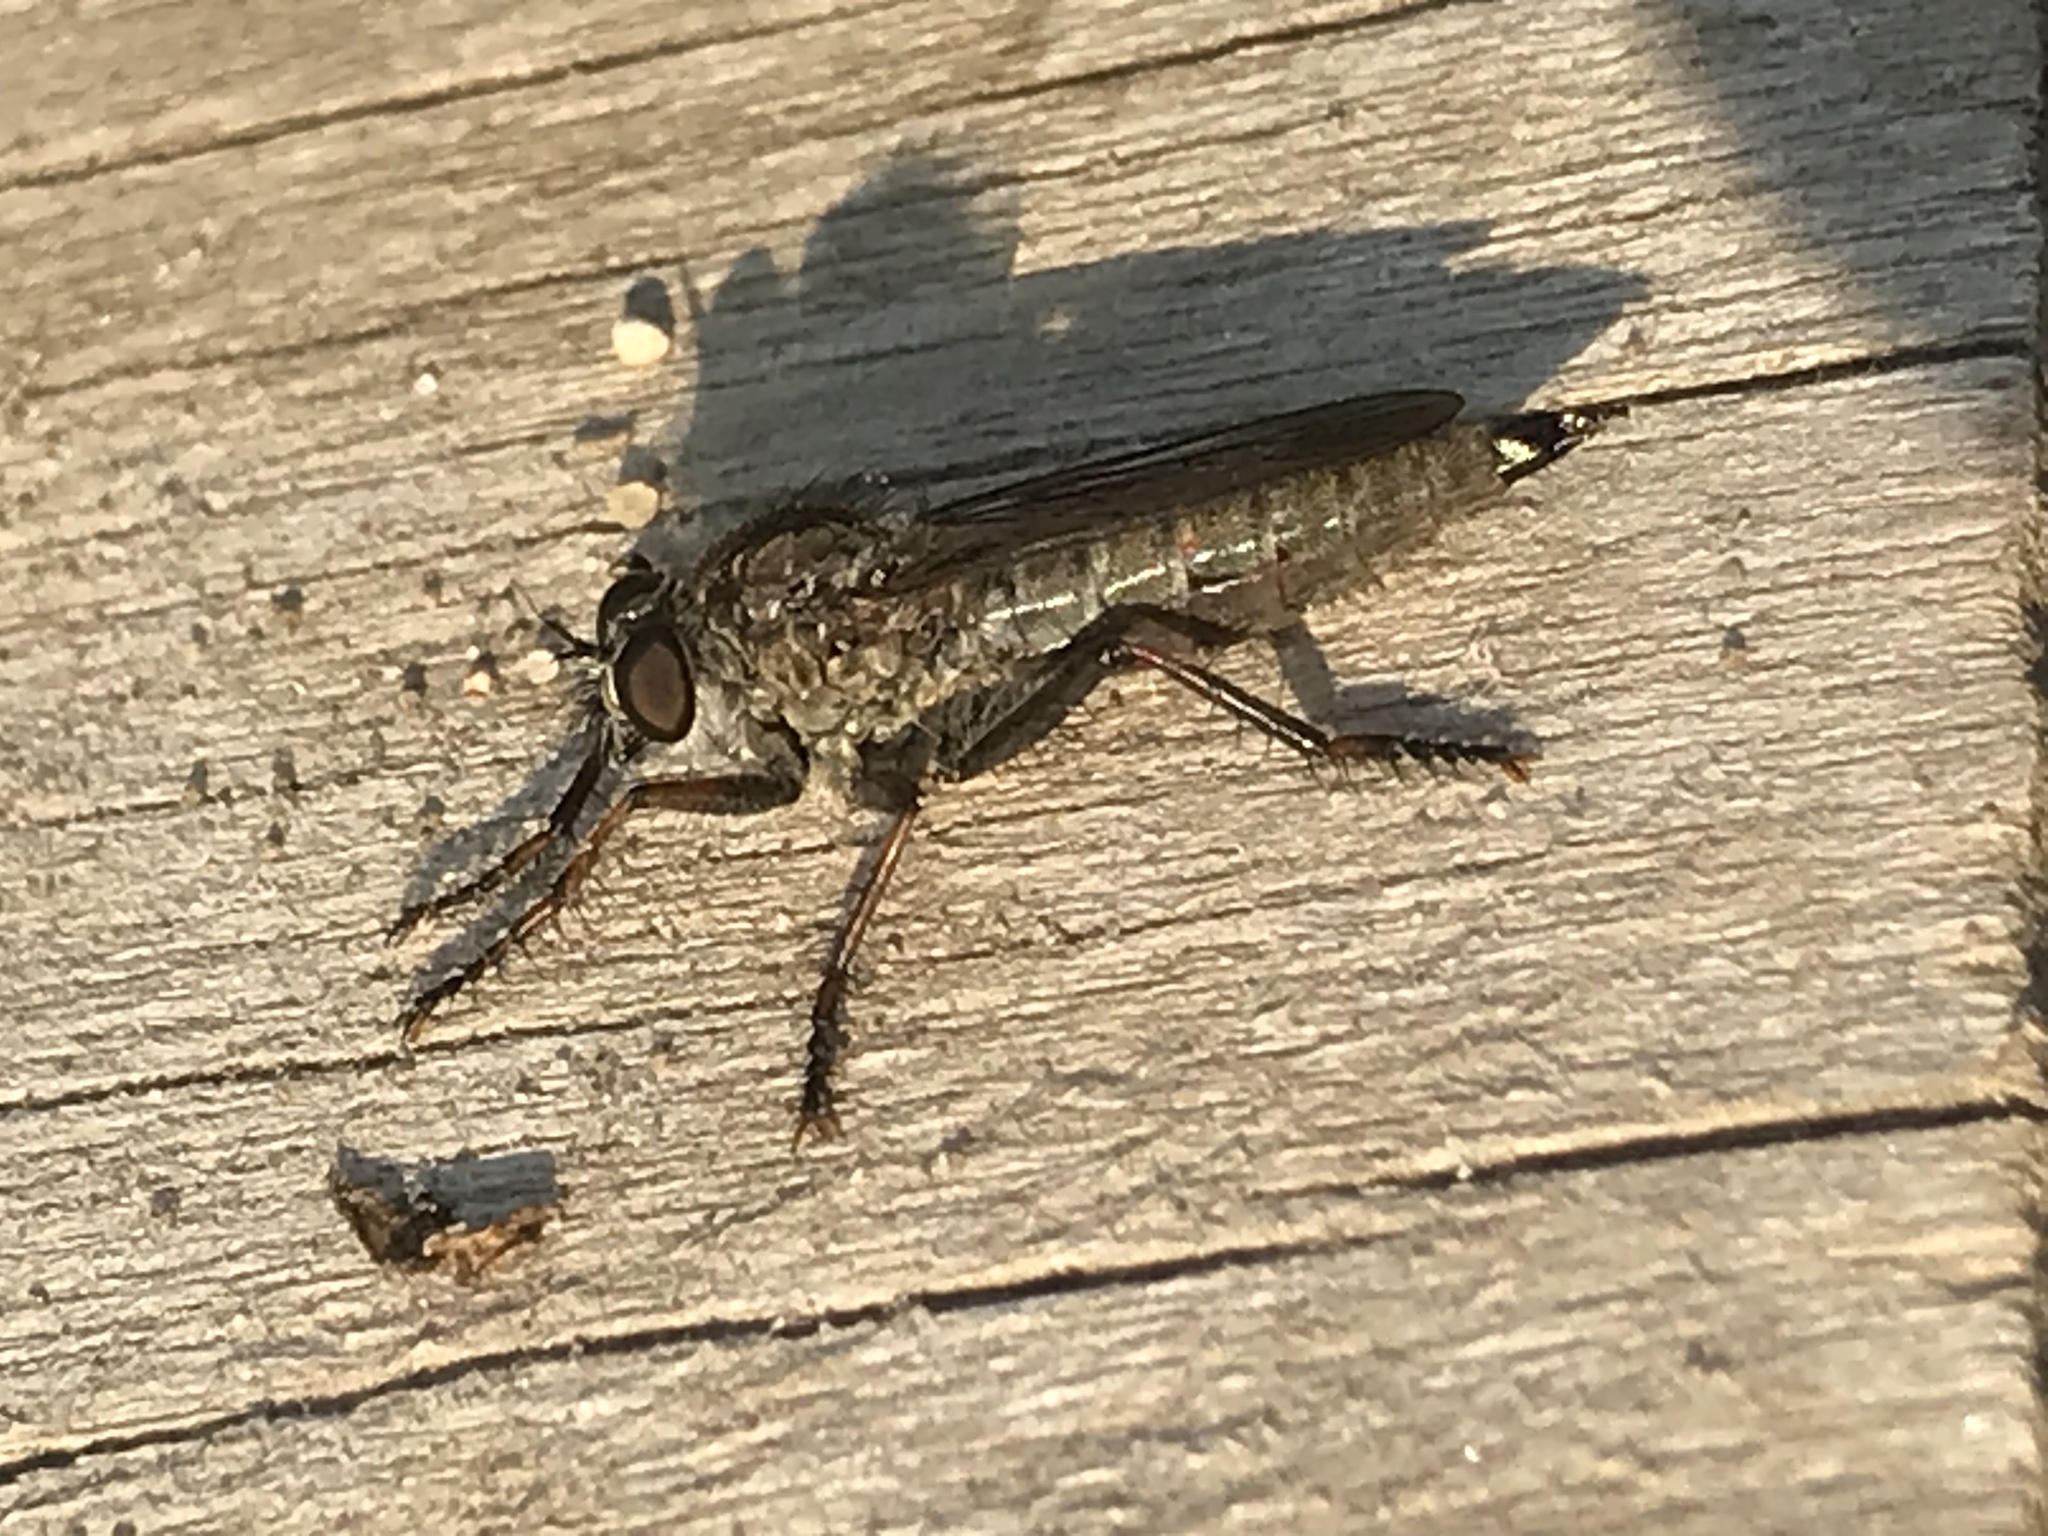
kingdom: Animalia
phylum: Arthropoda
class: Insecta
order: Diptera
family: Asilidae
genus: Machimus
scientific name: Machimus atricapillus
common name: Kite-tailed robberfly
